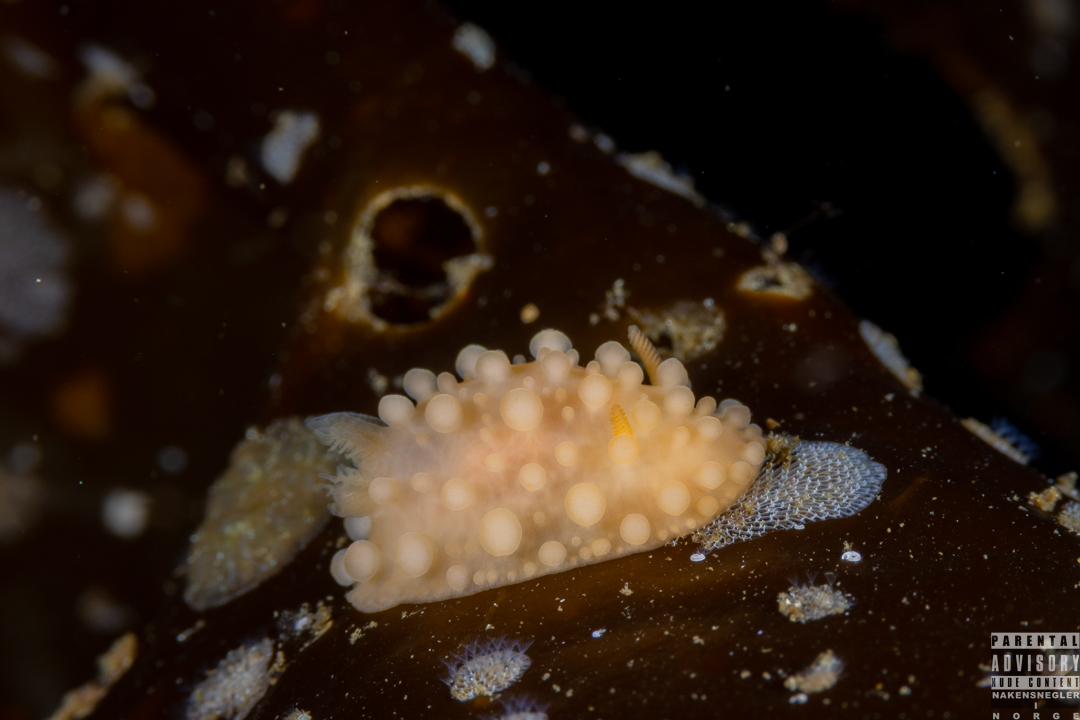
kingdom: Animalia
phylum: Mollusca
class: Gastropoda
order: Nudibranchia
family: Onchidorididae
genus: Adalaria
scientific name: Adalaria loveni
